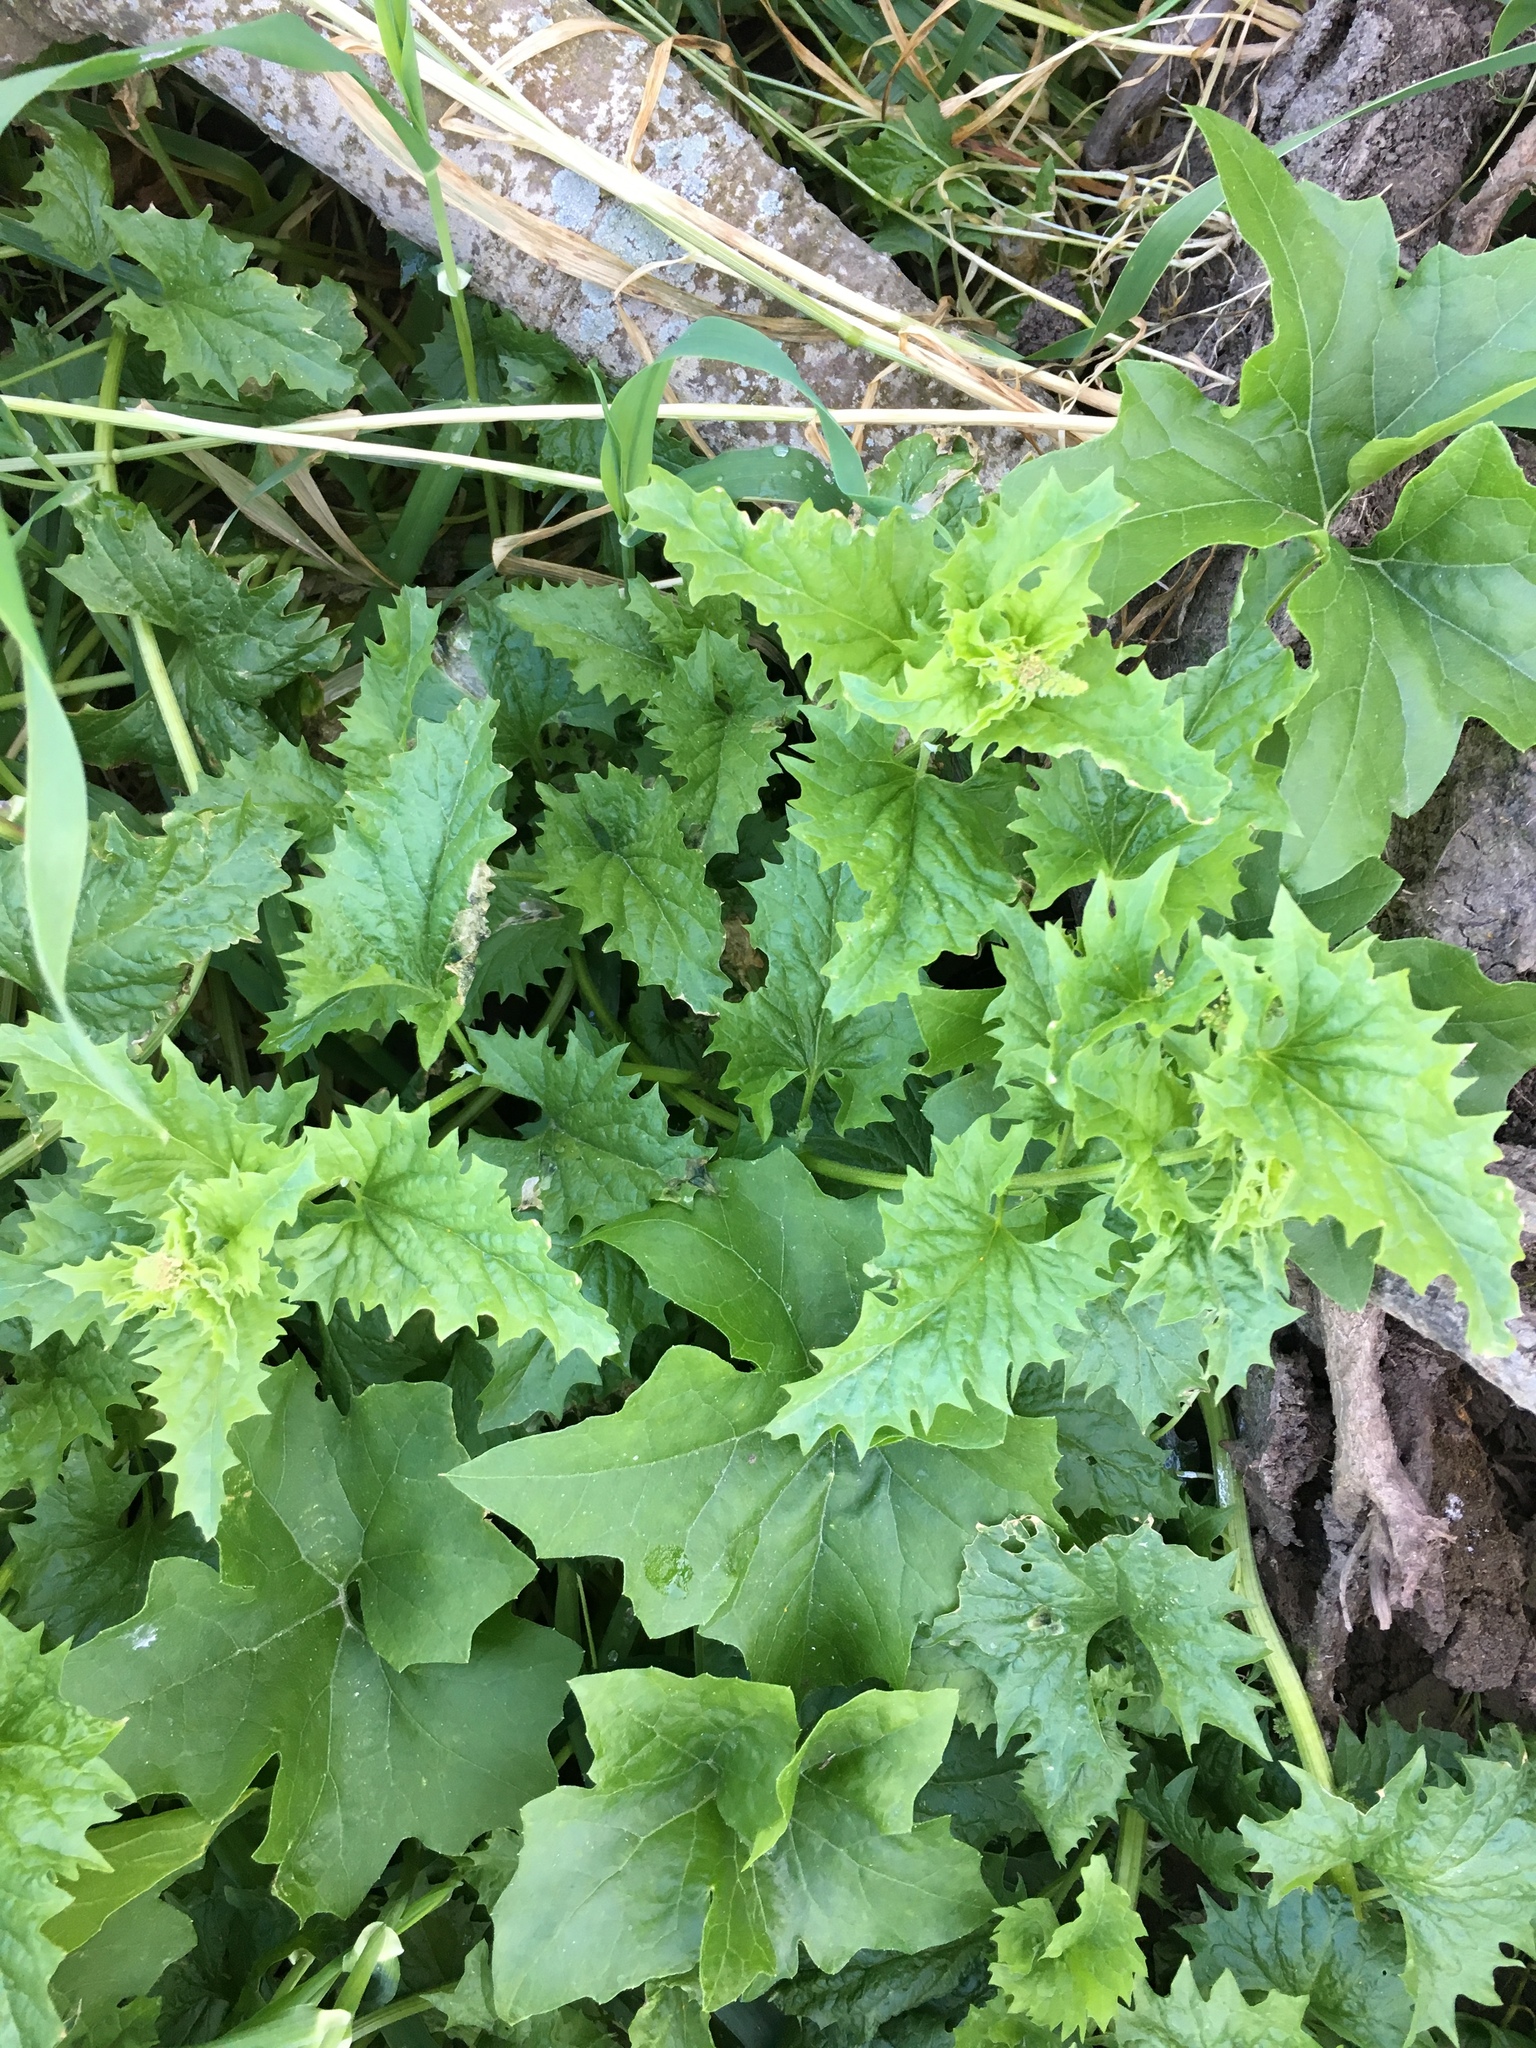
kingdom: Plantae
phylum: Tracheophyta
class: Magnoliopsida
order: Caryophyllales
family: Amaranthaceae
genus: Blitum
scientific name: Blitum californicum
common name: California goosefoot
